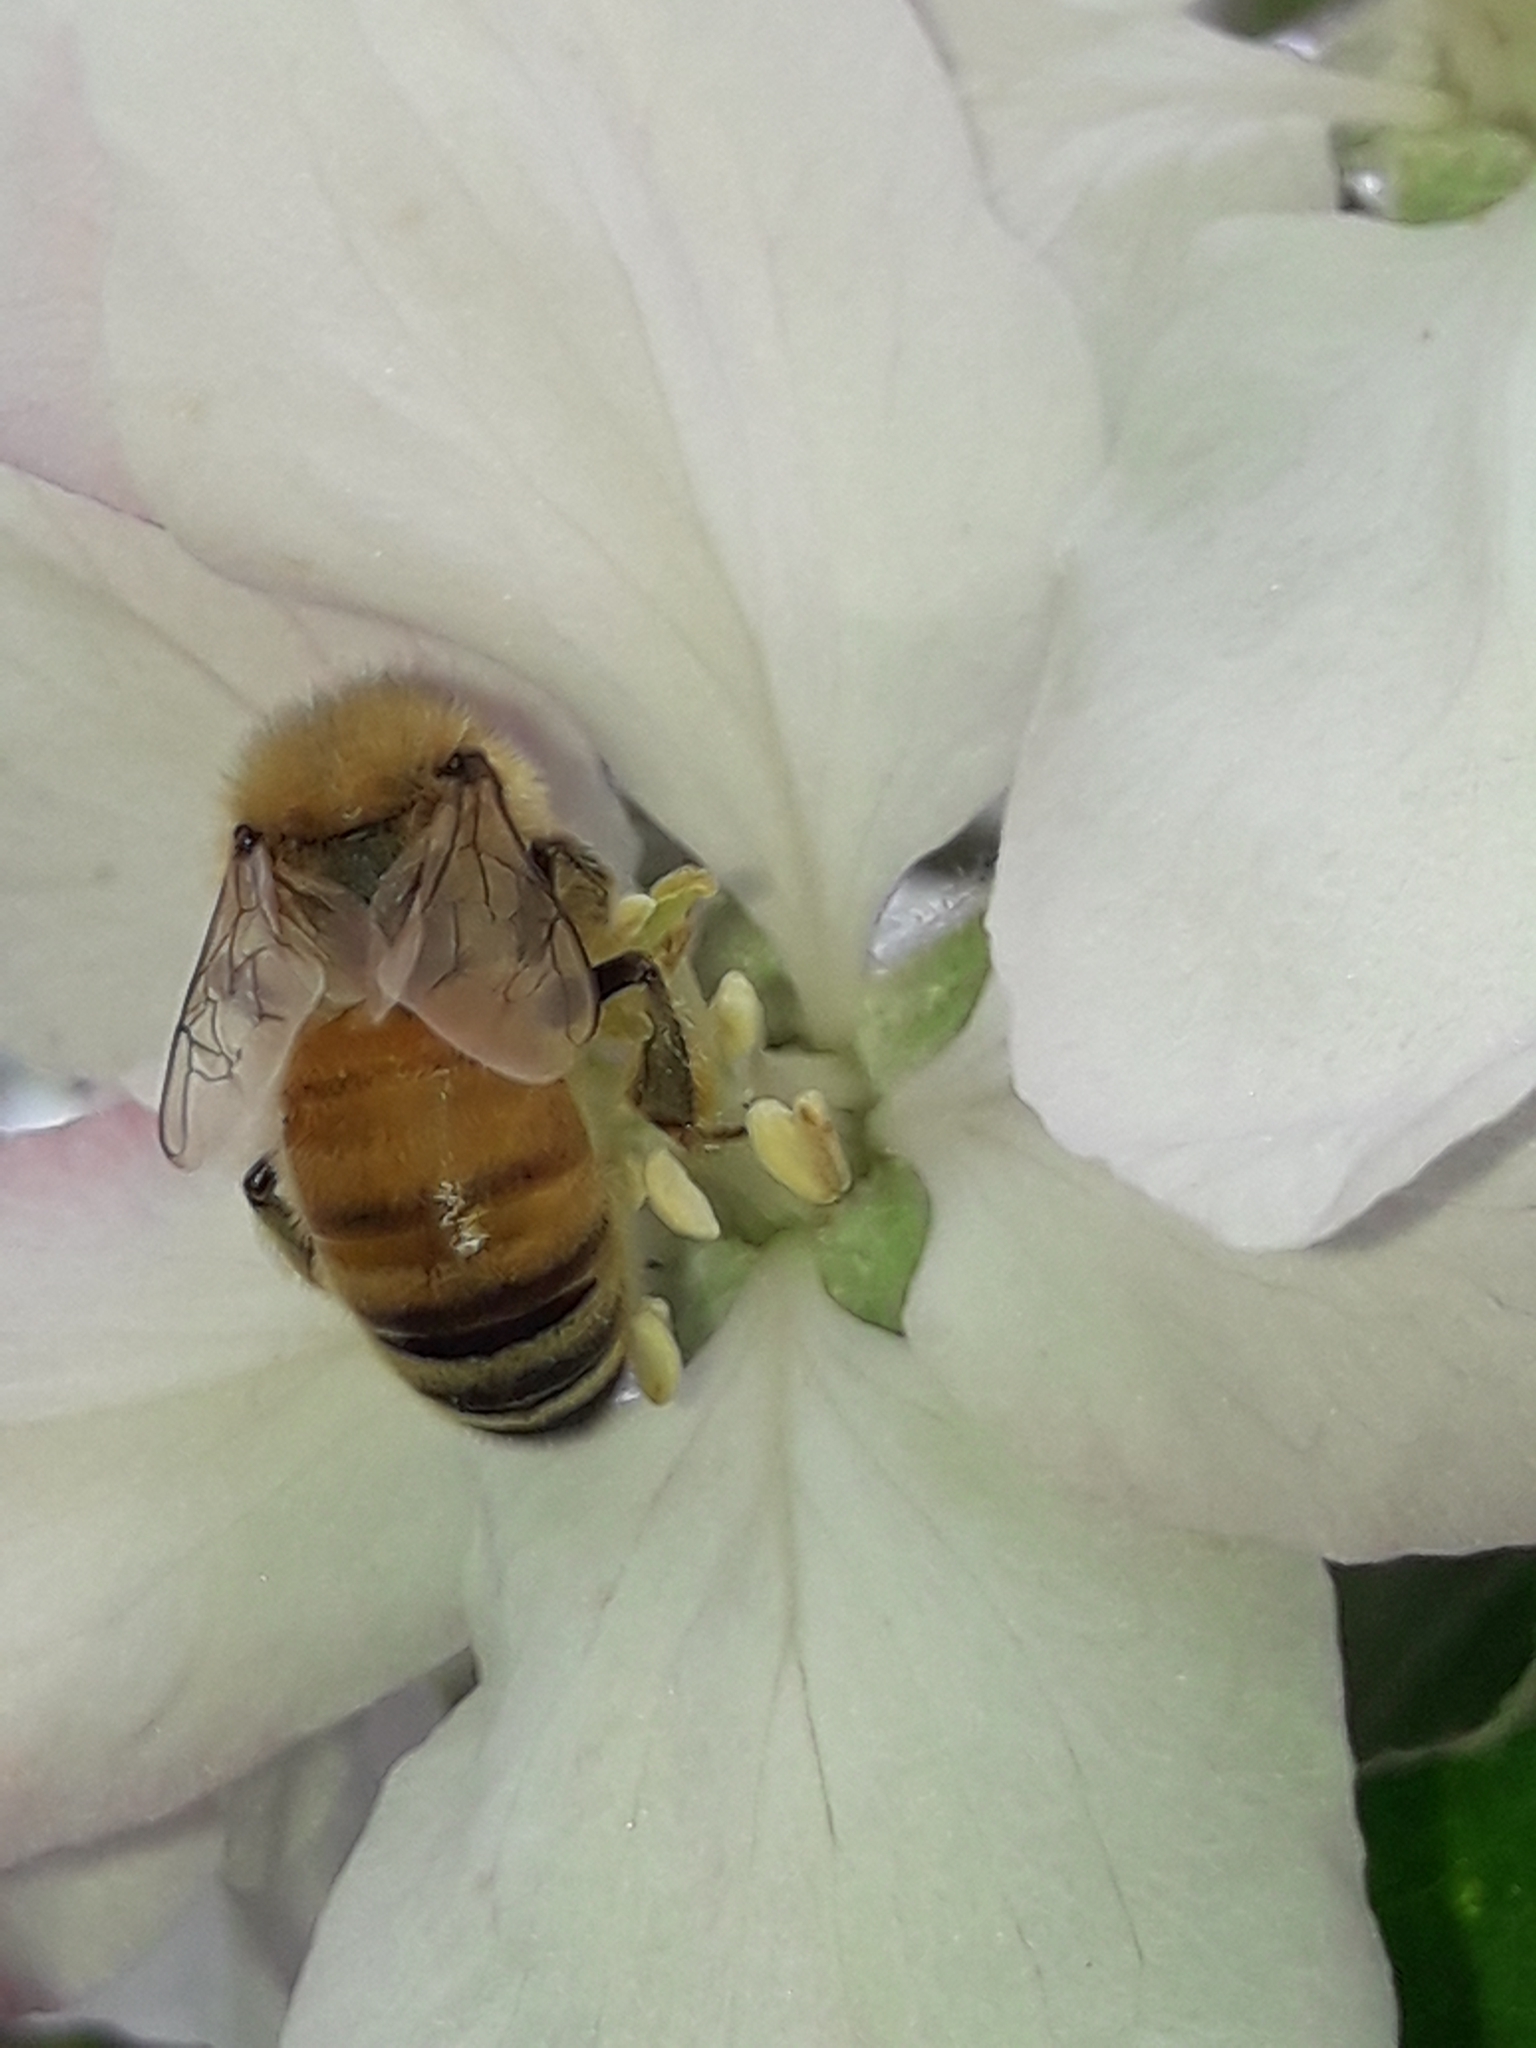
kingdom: Animalia
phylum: Arthropoda
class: Insecta
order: Hymenoptera
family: Apidae
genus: Apis
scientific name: Apis mellifera
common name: Honey bee
